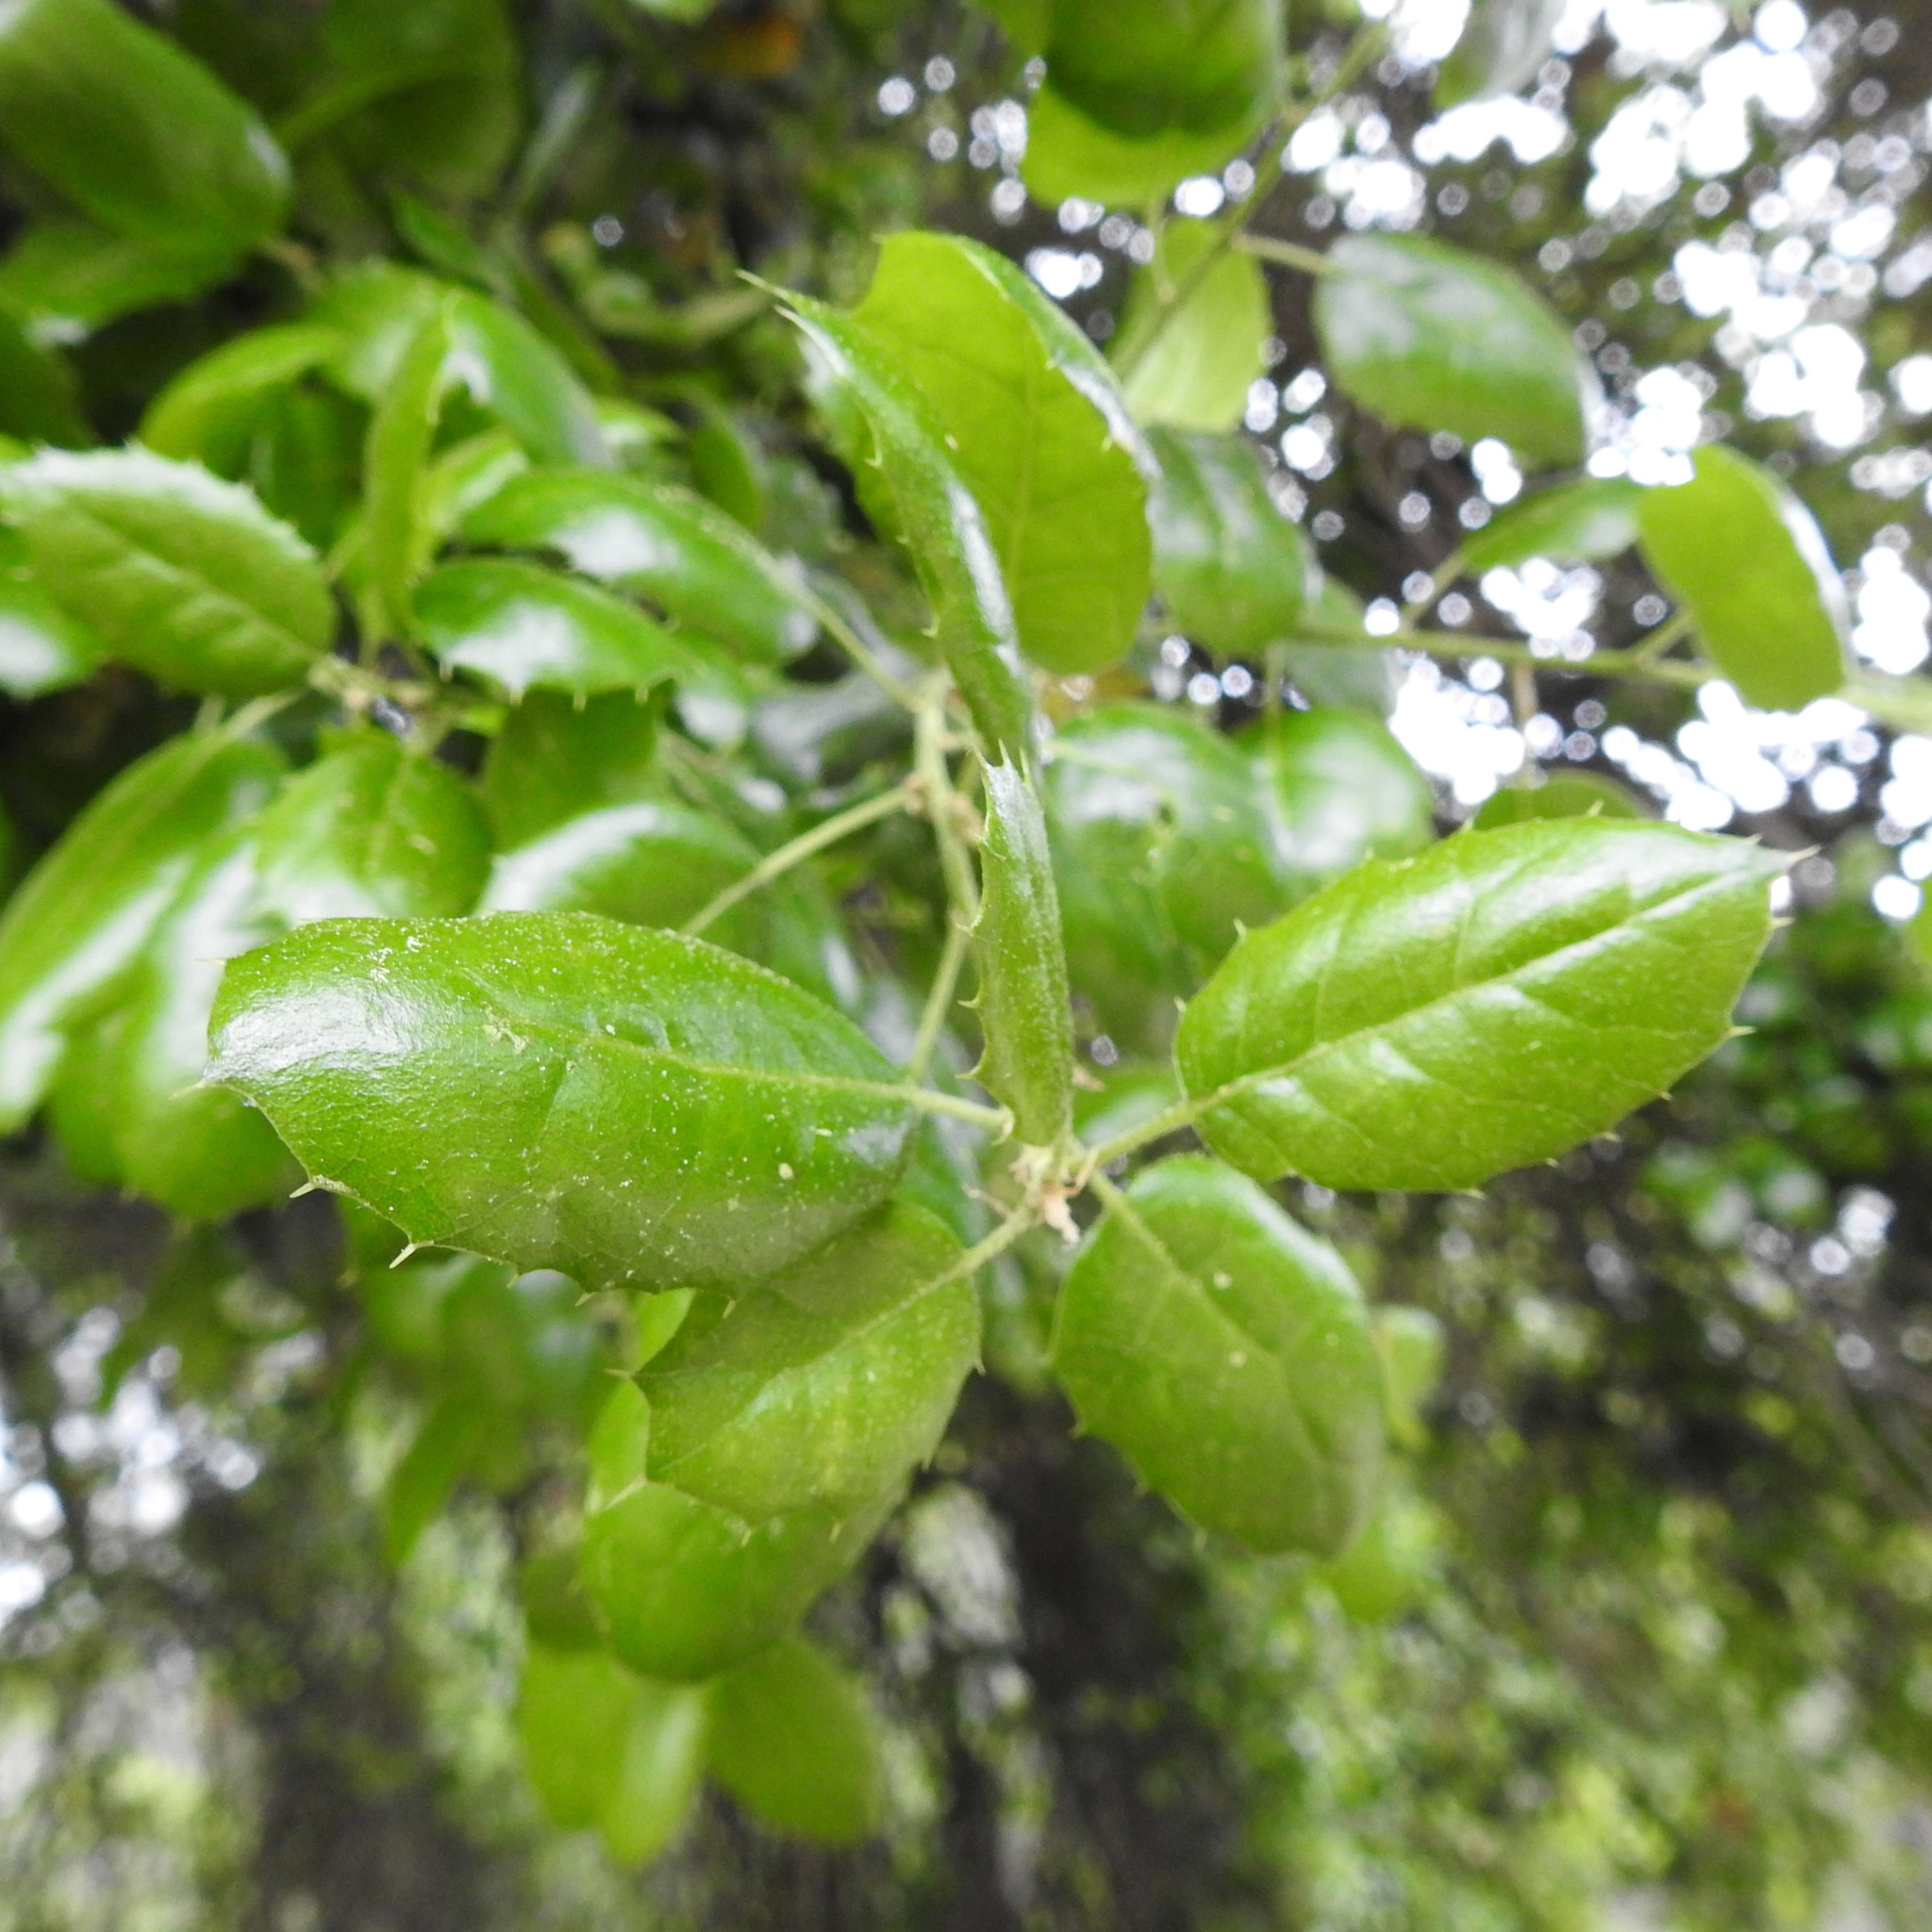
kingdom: Plantae
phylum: Tracheophyta
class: Magnoliopsida
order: Fagales
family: Fagaceae
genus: Quercus
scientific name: Quercus agrifolia
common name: California live oak
